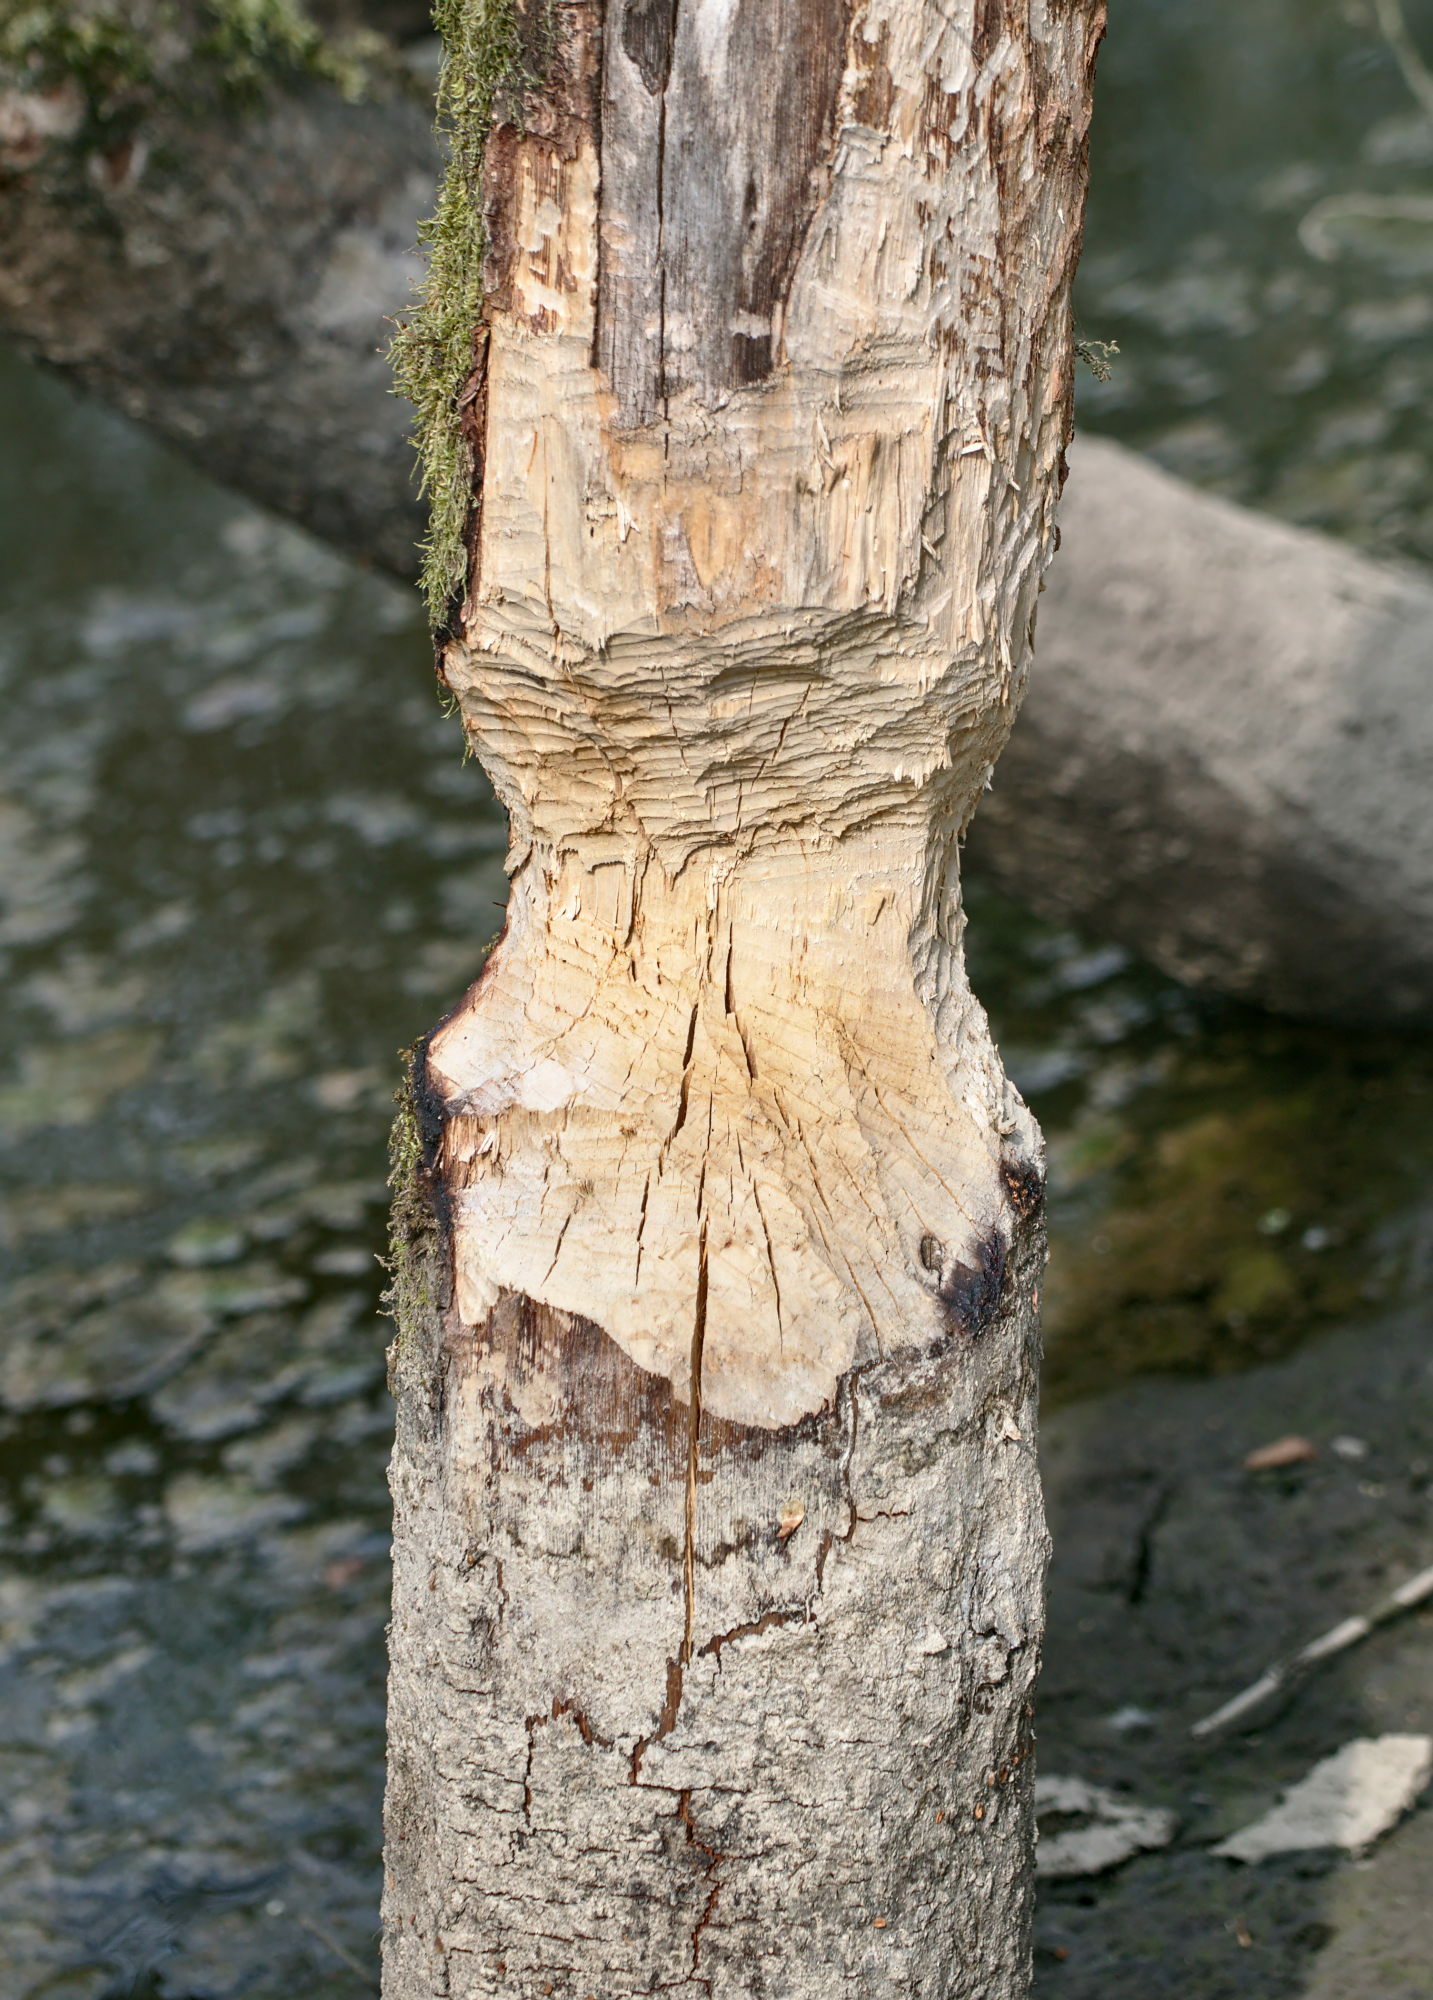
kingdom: Animalia
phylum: Chordata
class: Mammalia
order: Rodentia
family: Castoridae
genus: Castor
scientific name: Castor fiber
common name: Eurasian beaver
